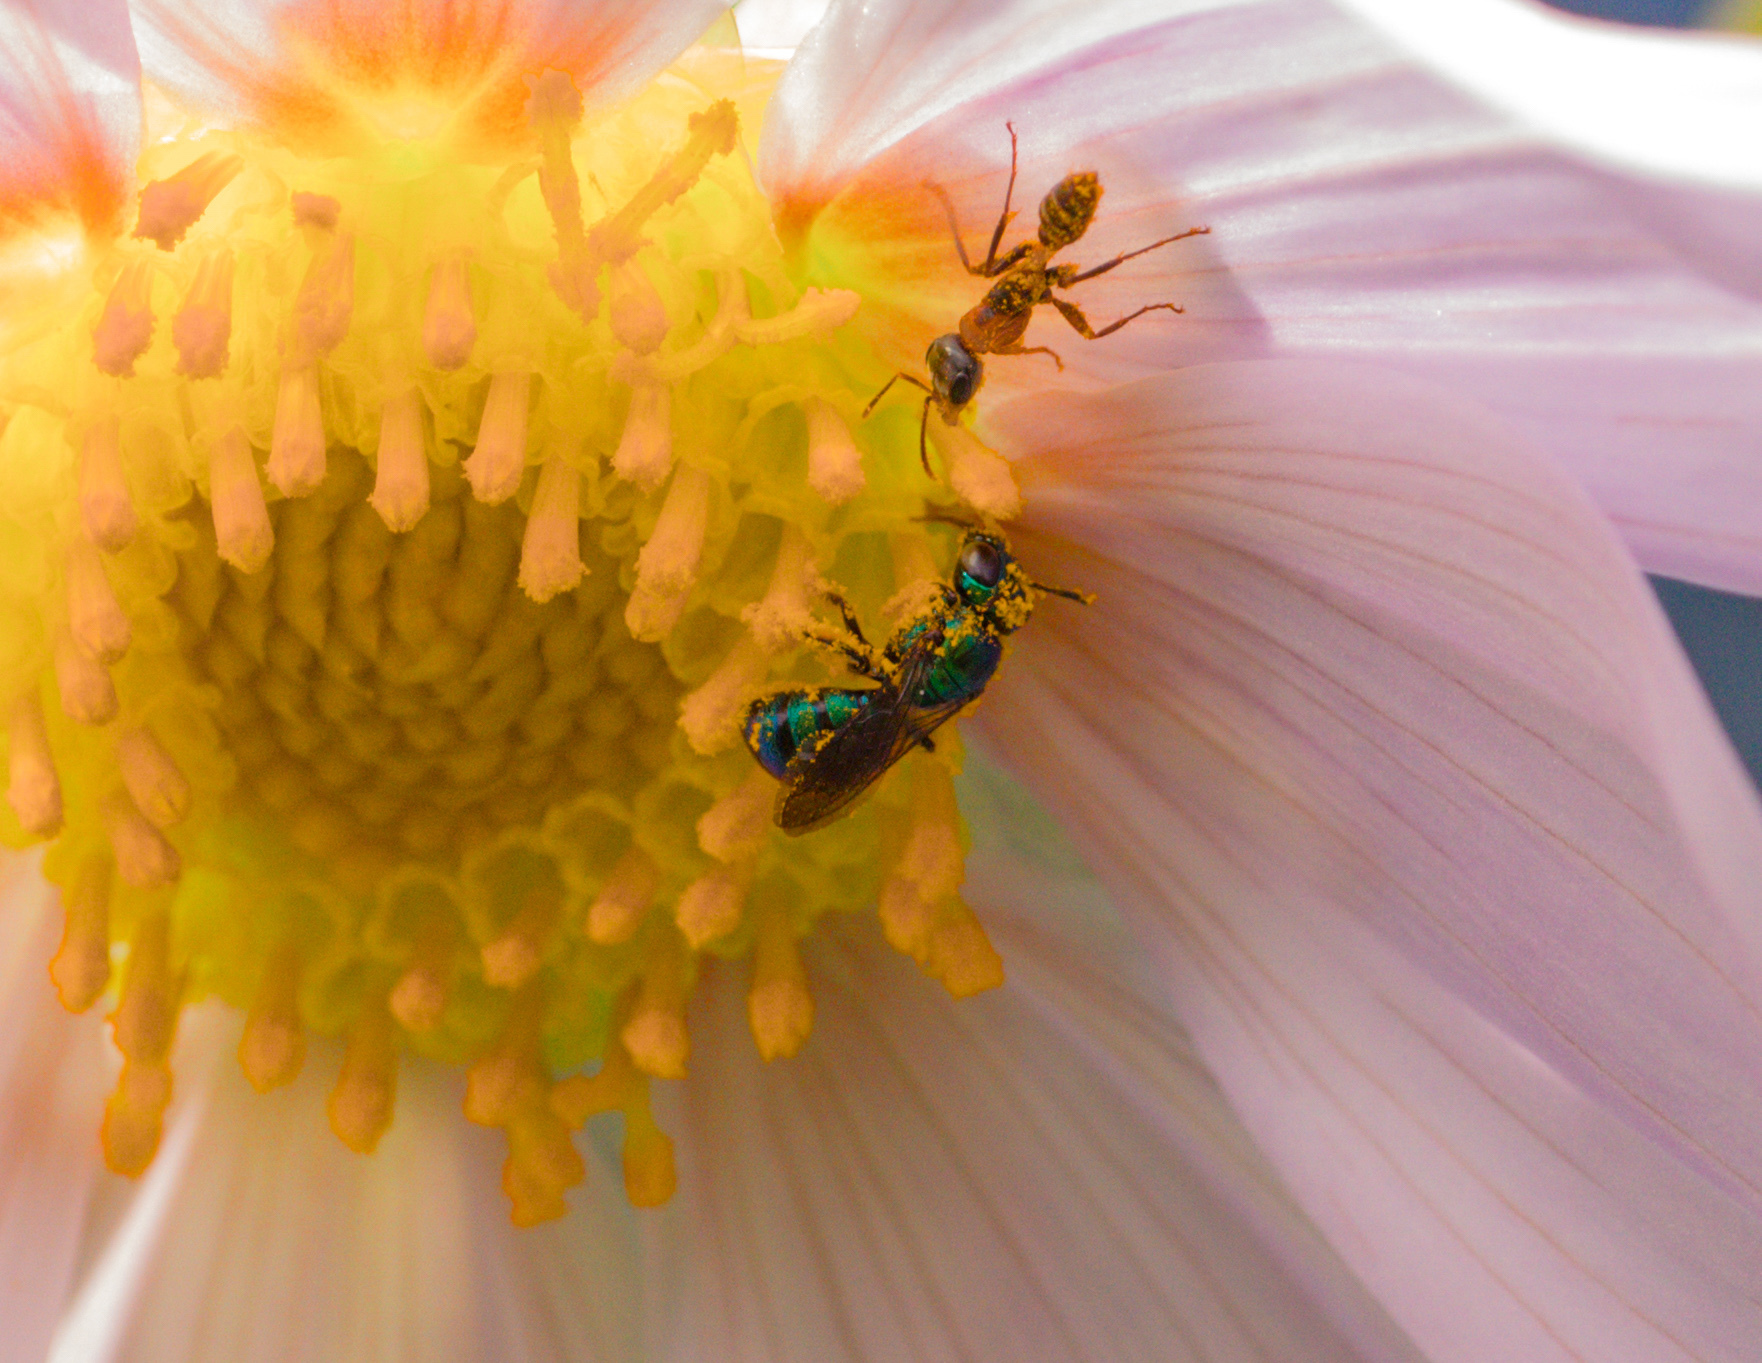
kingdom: Animalia
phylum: Arthropoda
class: Insecta
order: Hymenoptera
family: Apidae
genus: Ceratina
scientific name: Ceratina cobaltina
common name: Small carpenter bee
